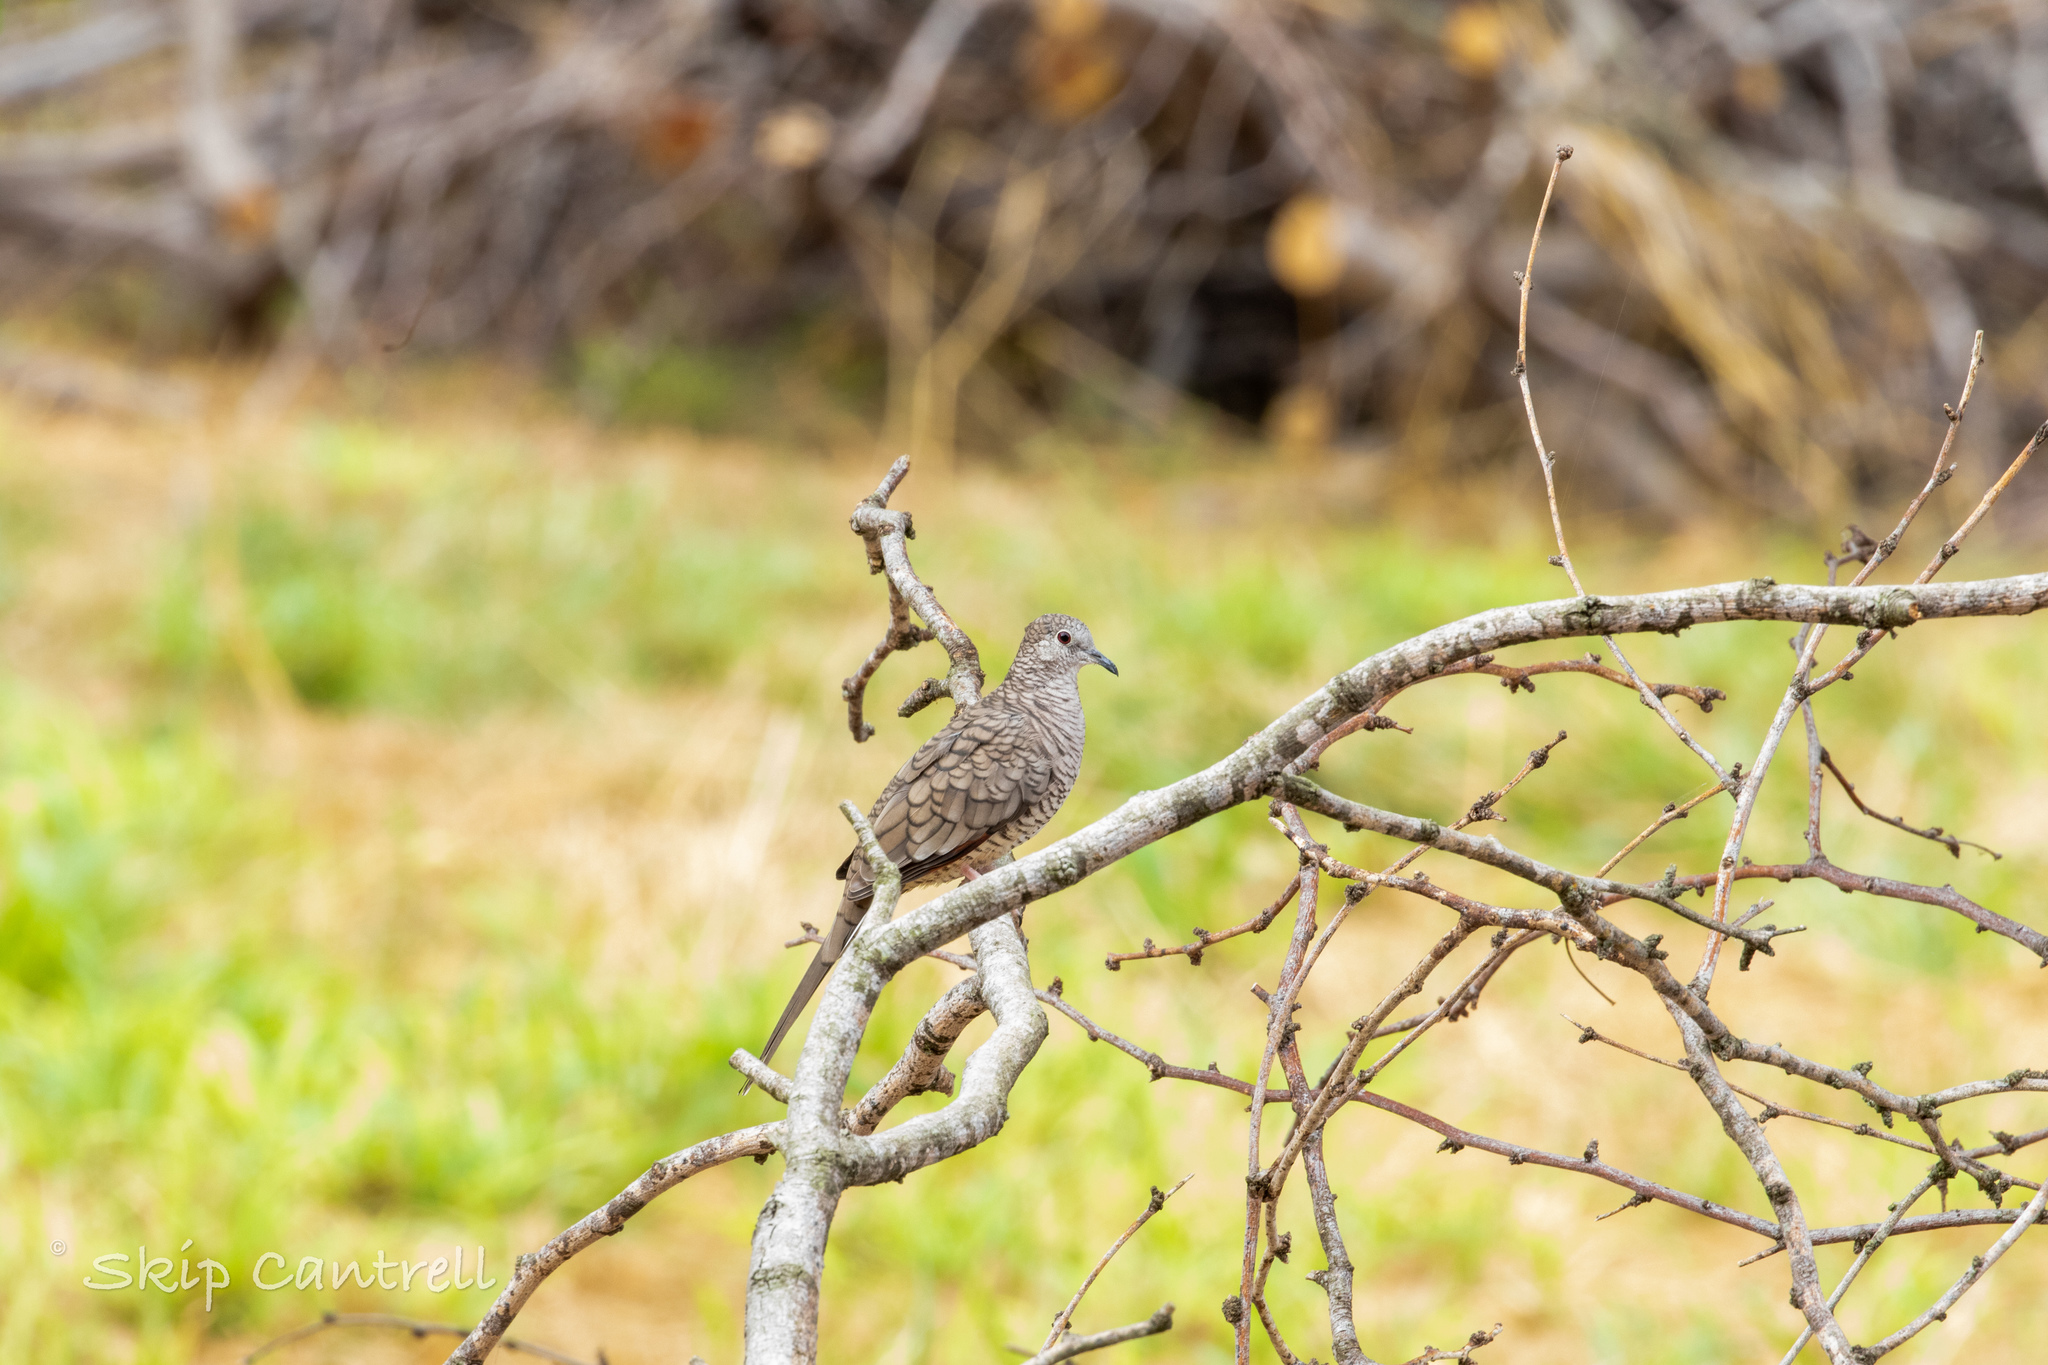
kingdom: Animalia
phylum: Chordata
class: Aves
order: Columbiformes
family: Columbidae
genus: Columbina
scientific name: Columbina inca
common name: Inca dove
